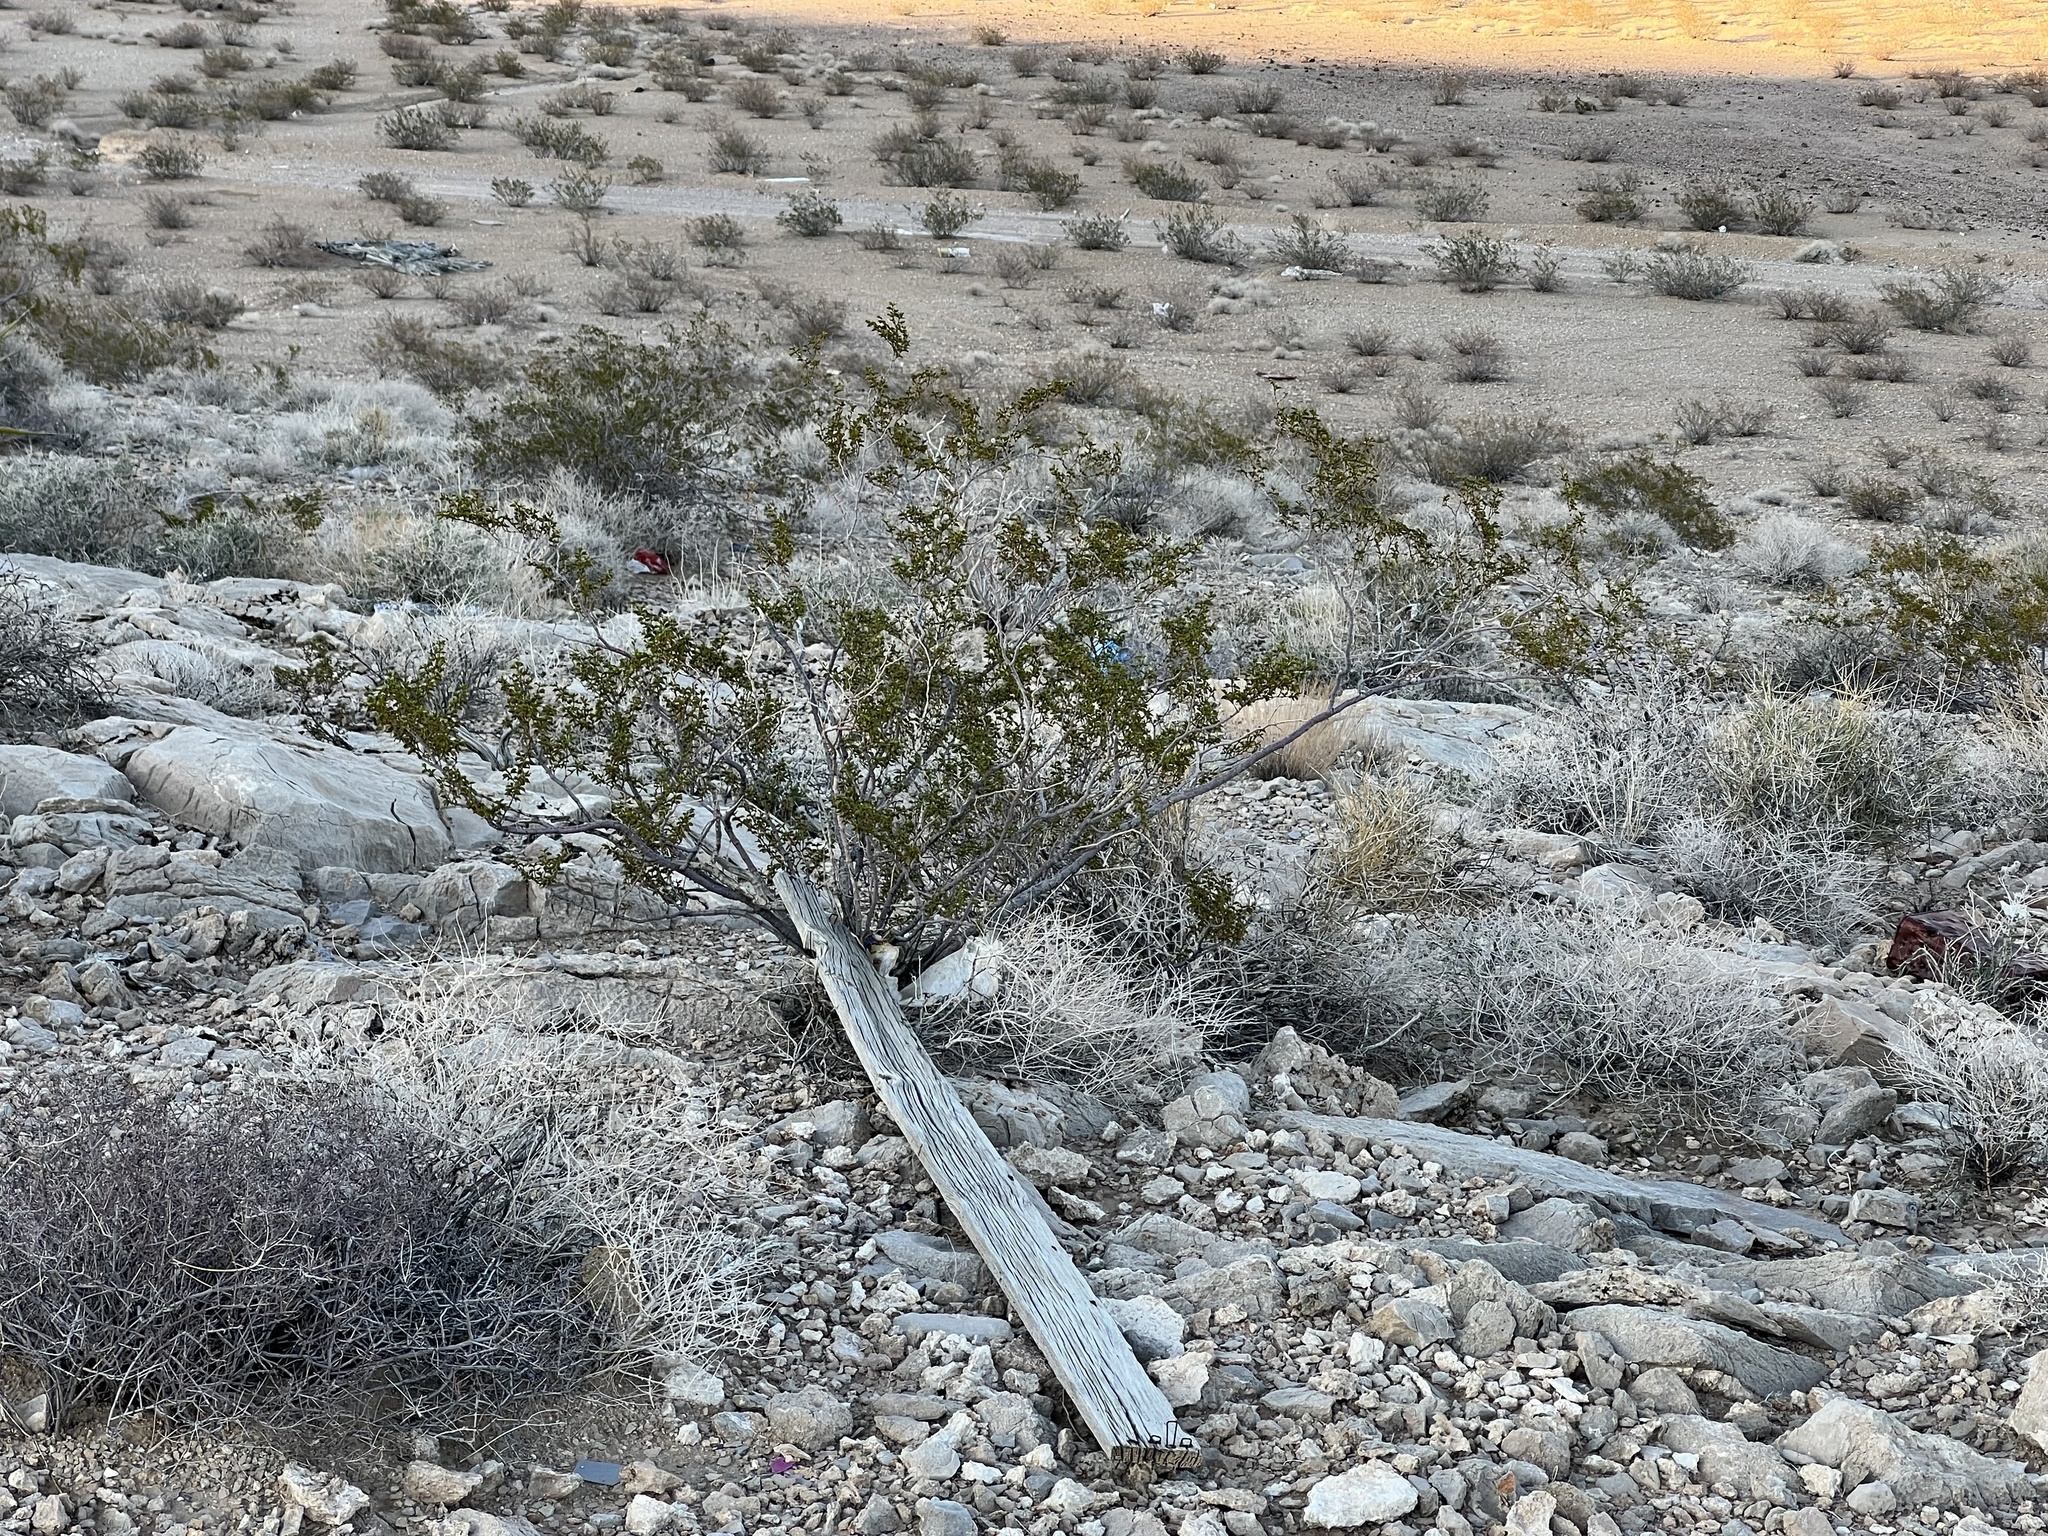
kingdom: Plantae
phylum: Tracheophyta
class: Magnoliopsida
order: Zygophyllales
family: Zygophyllaceae
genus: Larrea
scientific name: Larrea tridentata
